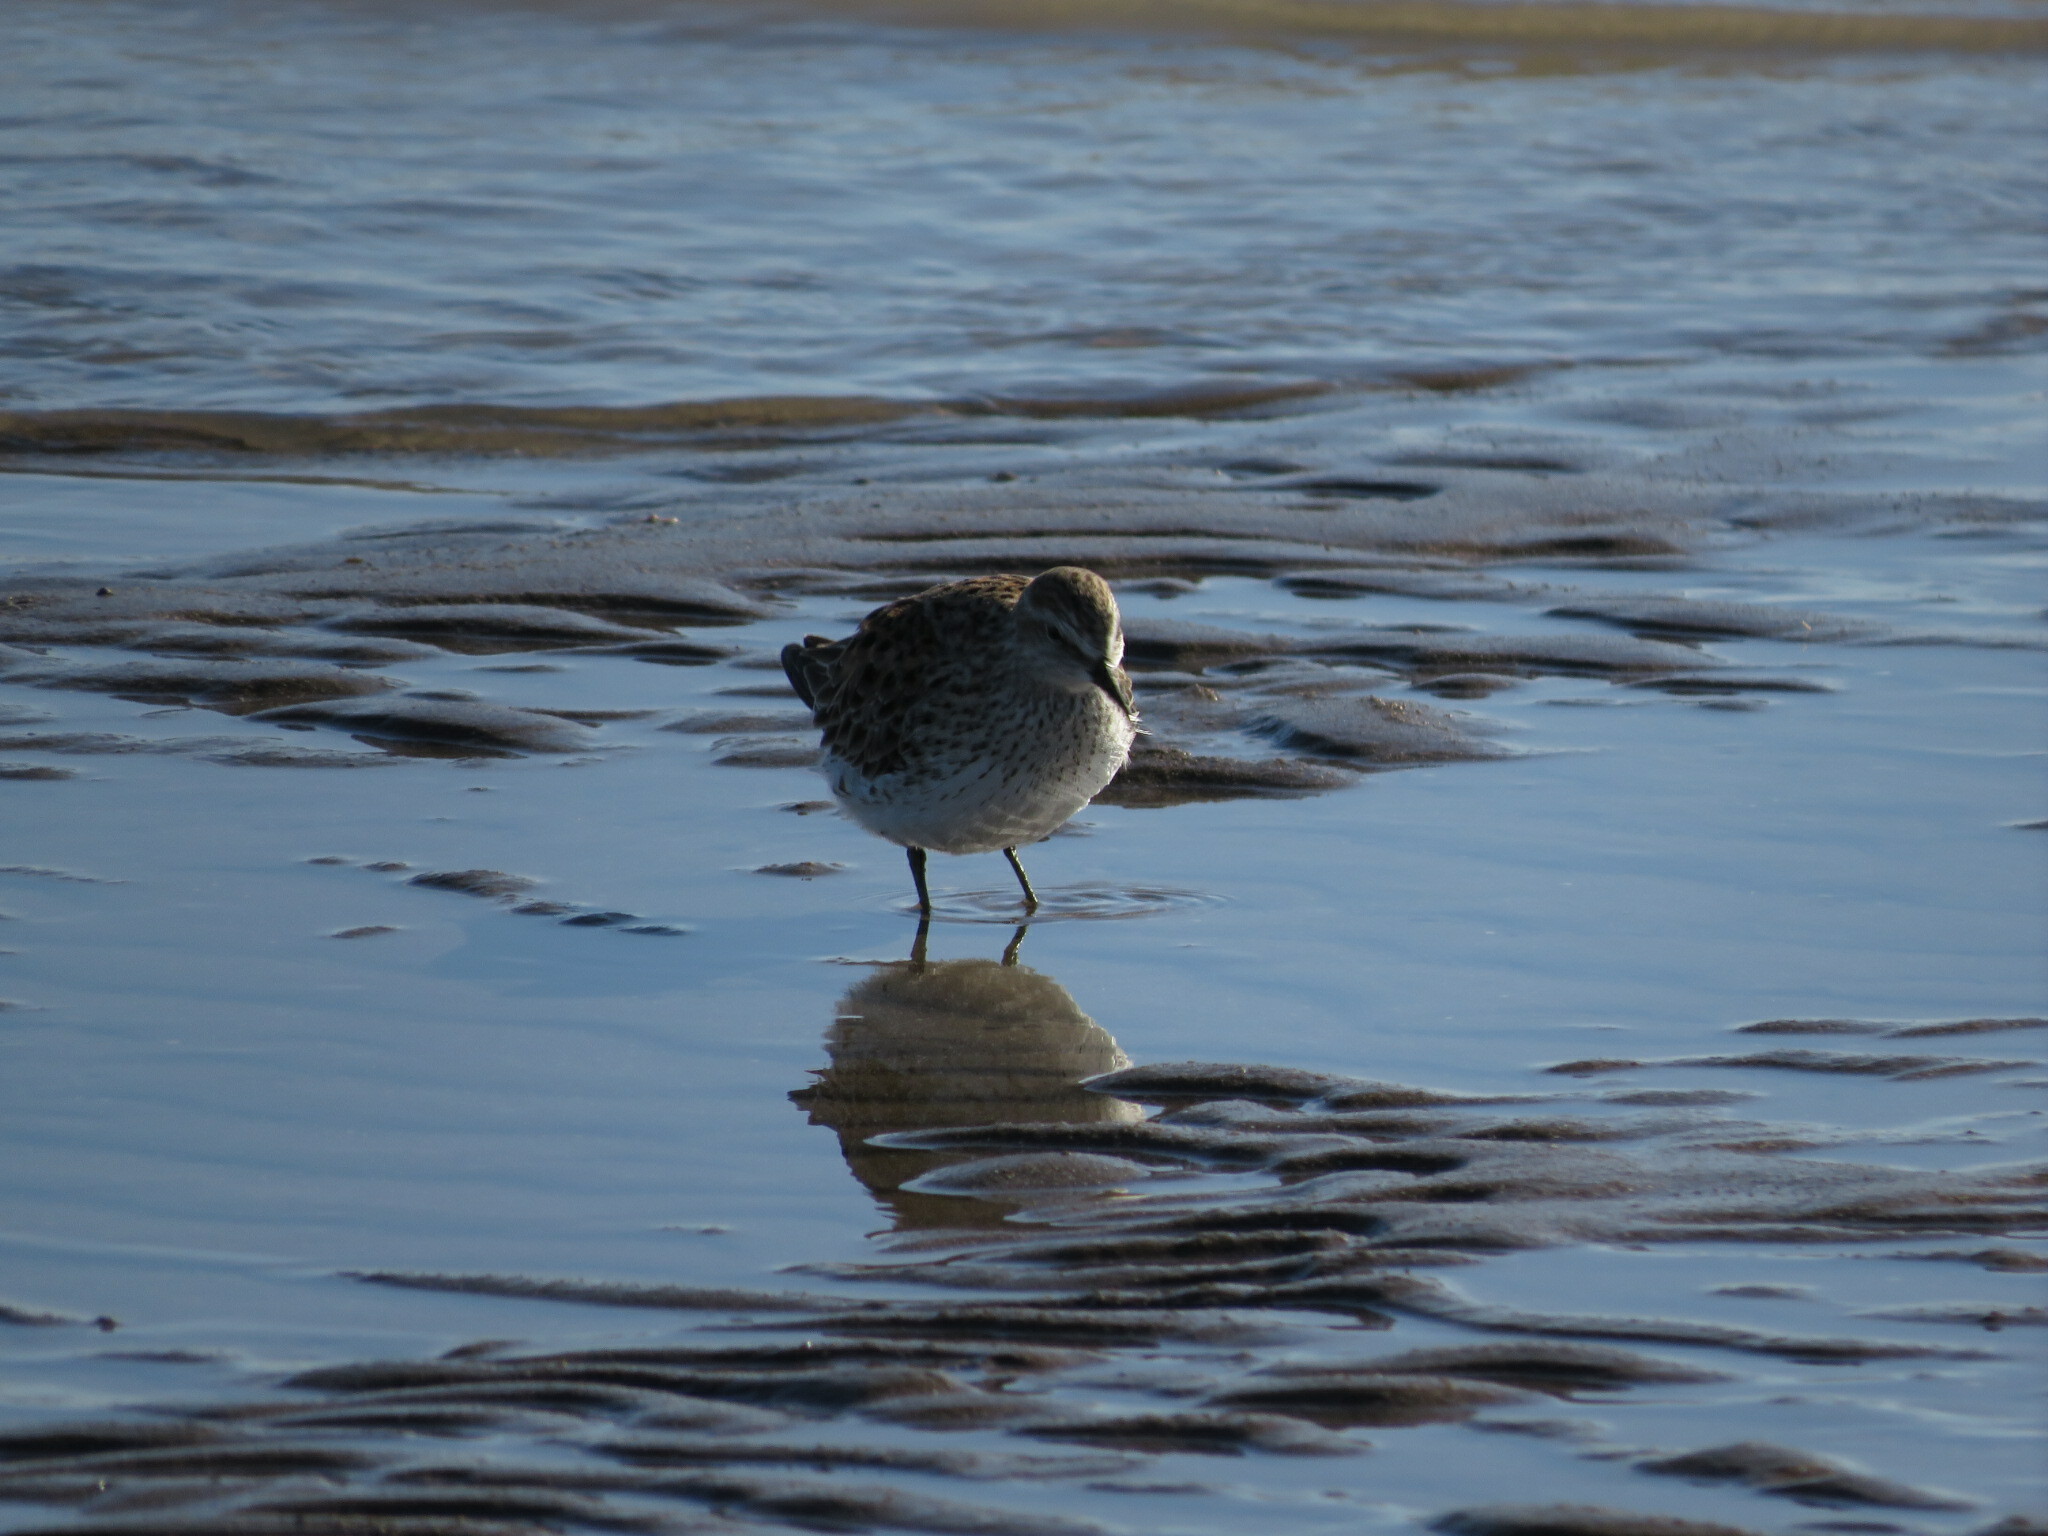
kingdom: Animalia
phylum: Chordata
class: Aves
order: Charadriiformes
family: Scolopacidae
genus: Calidris
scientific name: Calidris fuscicollis
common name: White-rumped sandpiper
